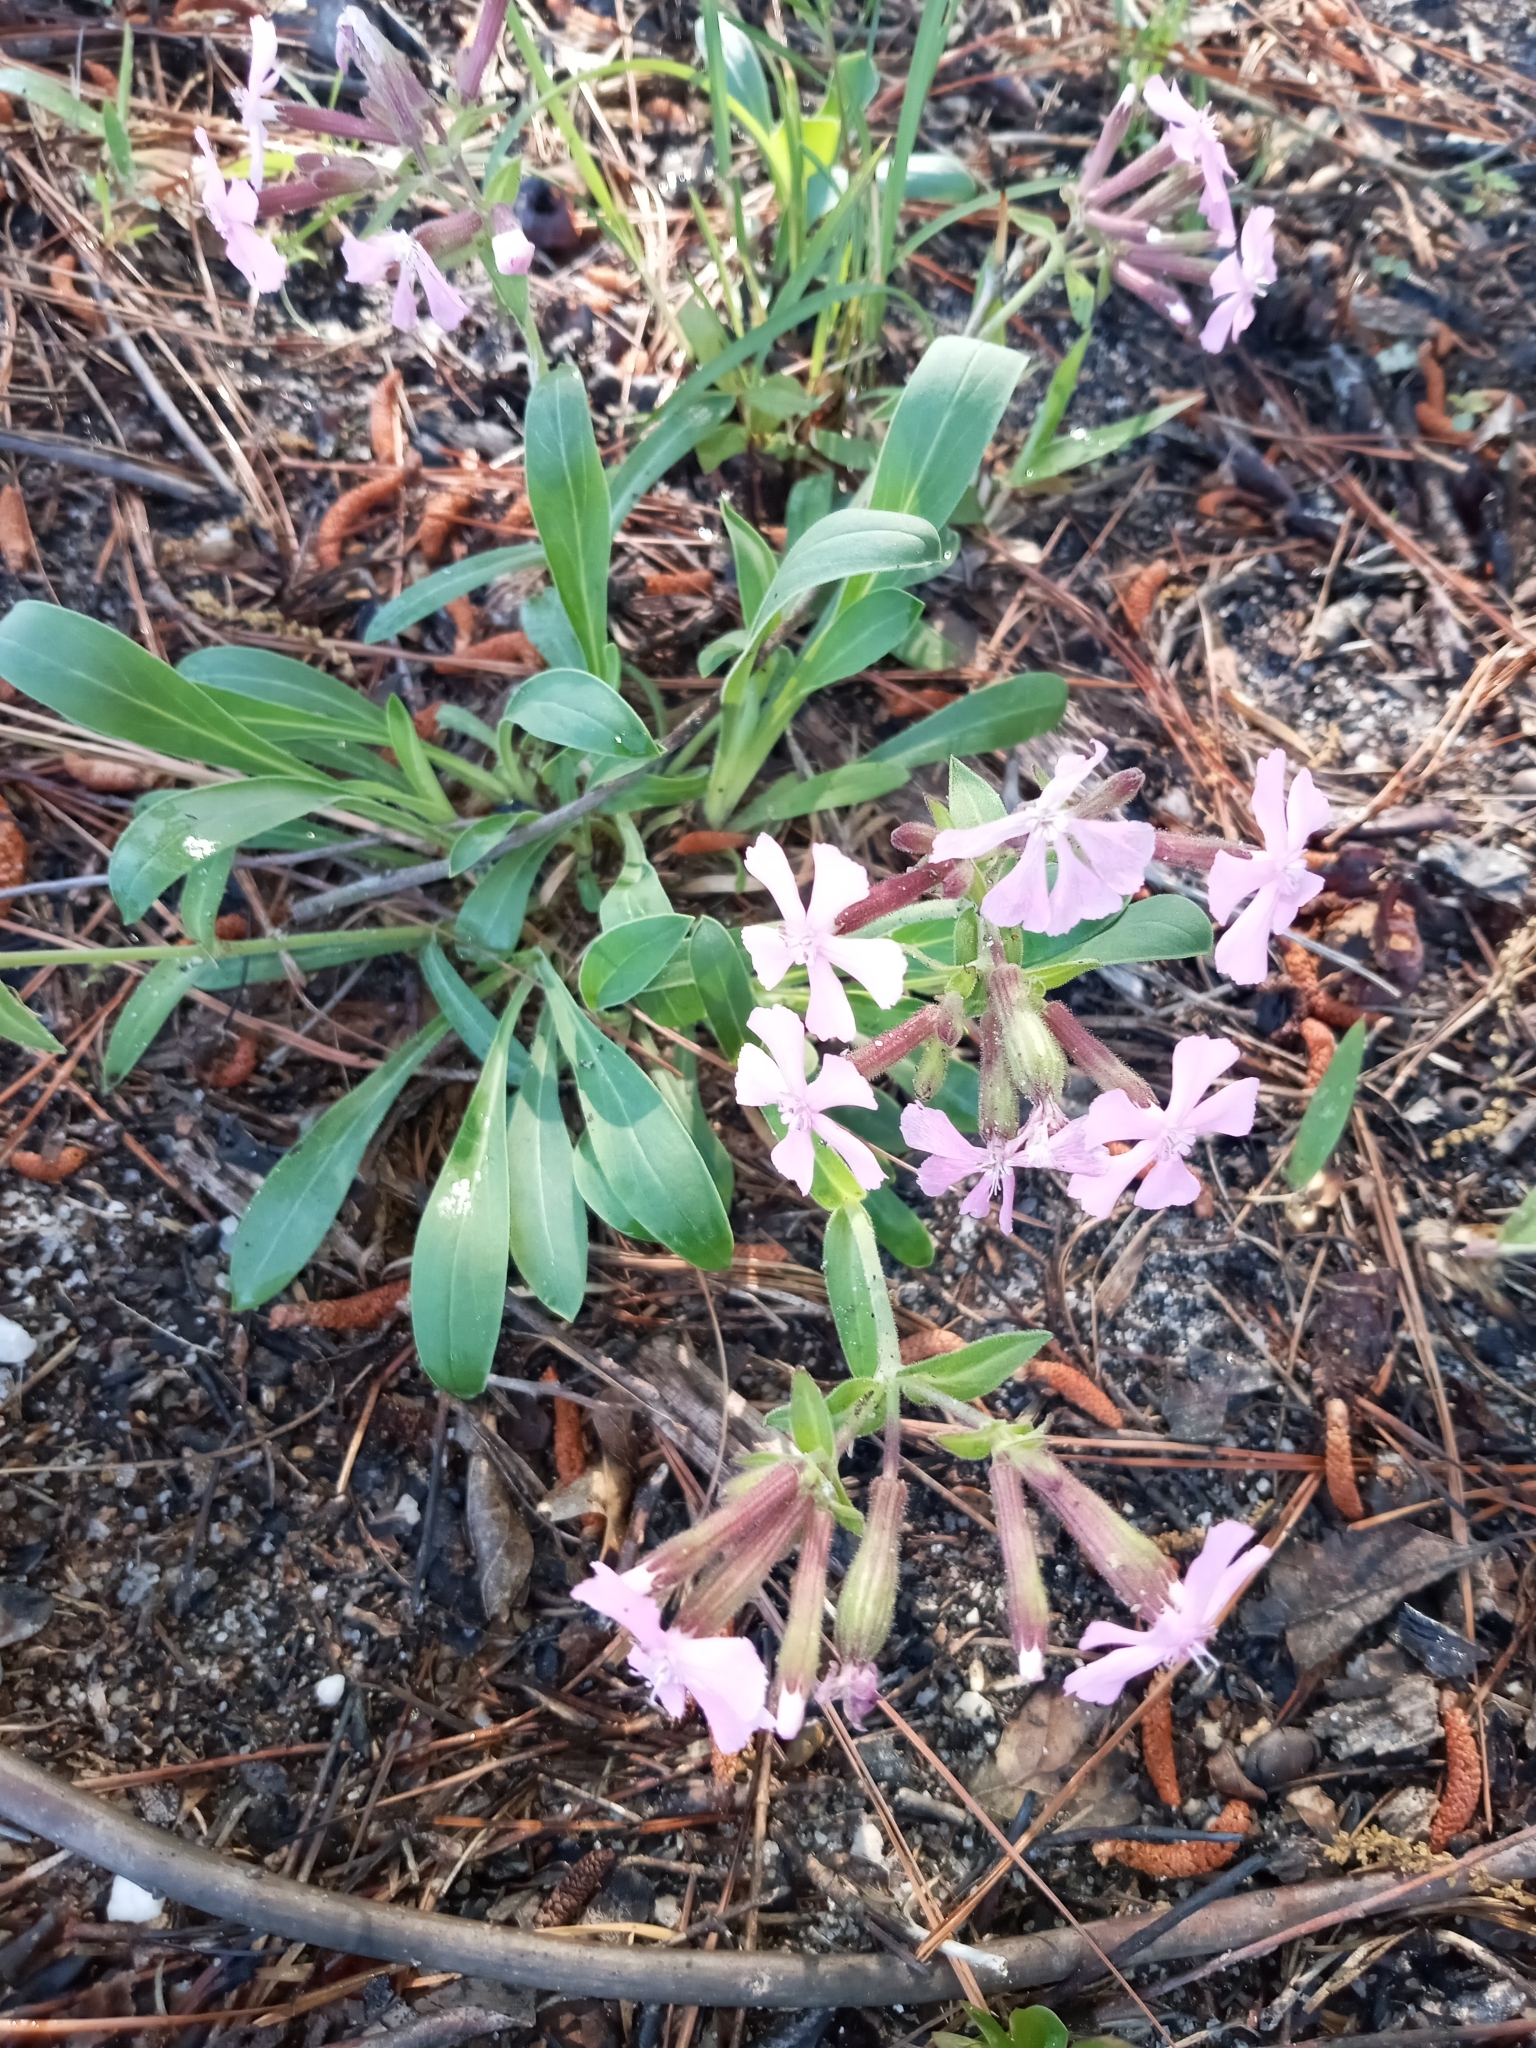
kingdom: Plantae
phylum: Tracheophyta
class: Magnoliopsida
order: Caryophyllales
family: Caryophyllaceae
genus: Silene
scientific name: Silene caroliniana
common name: Sticky catchfly
